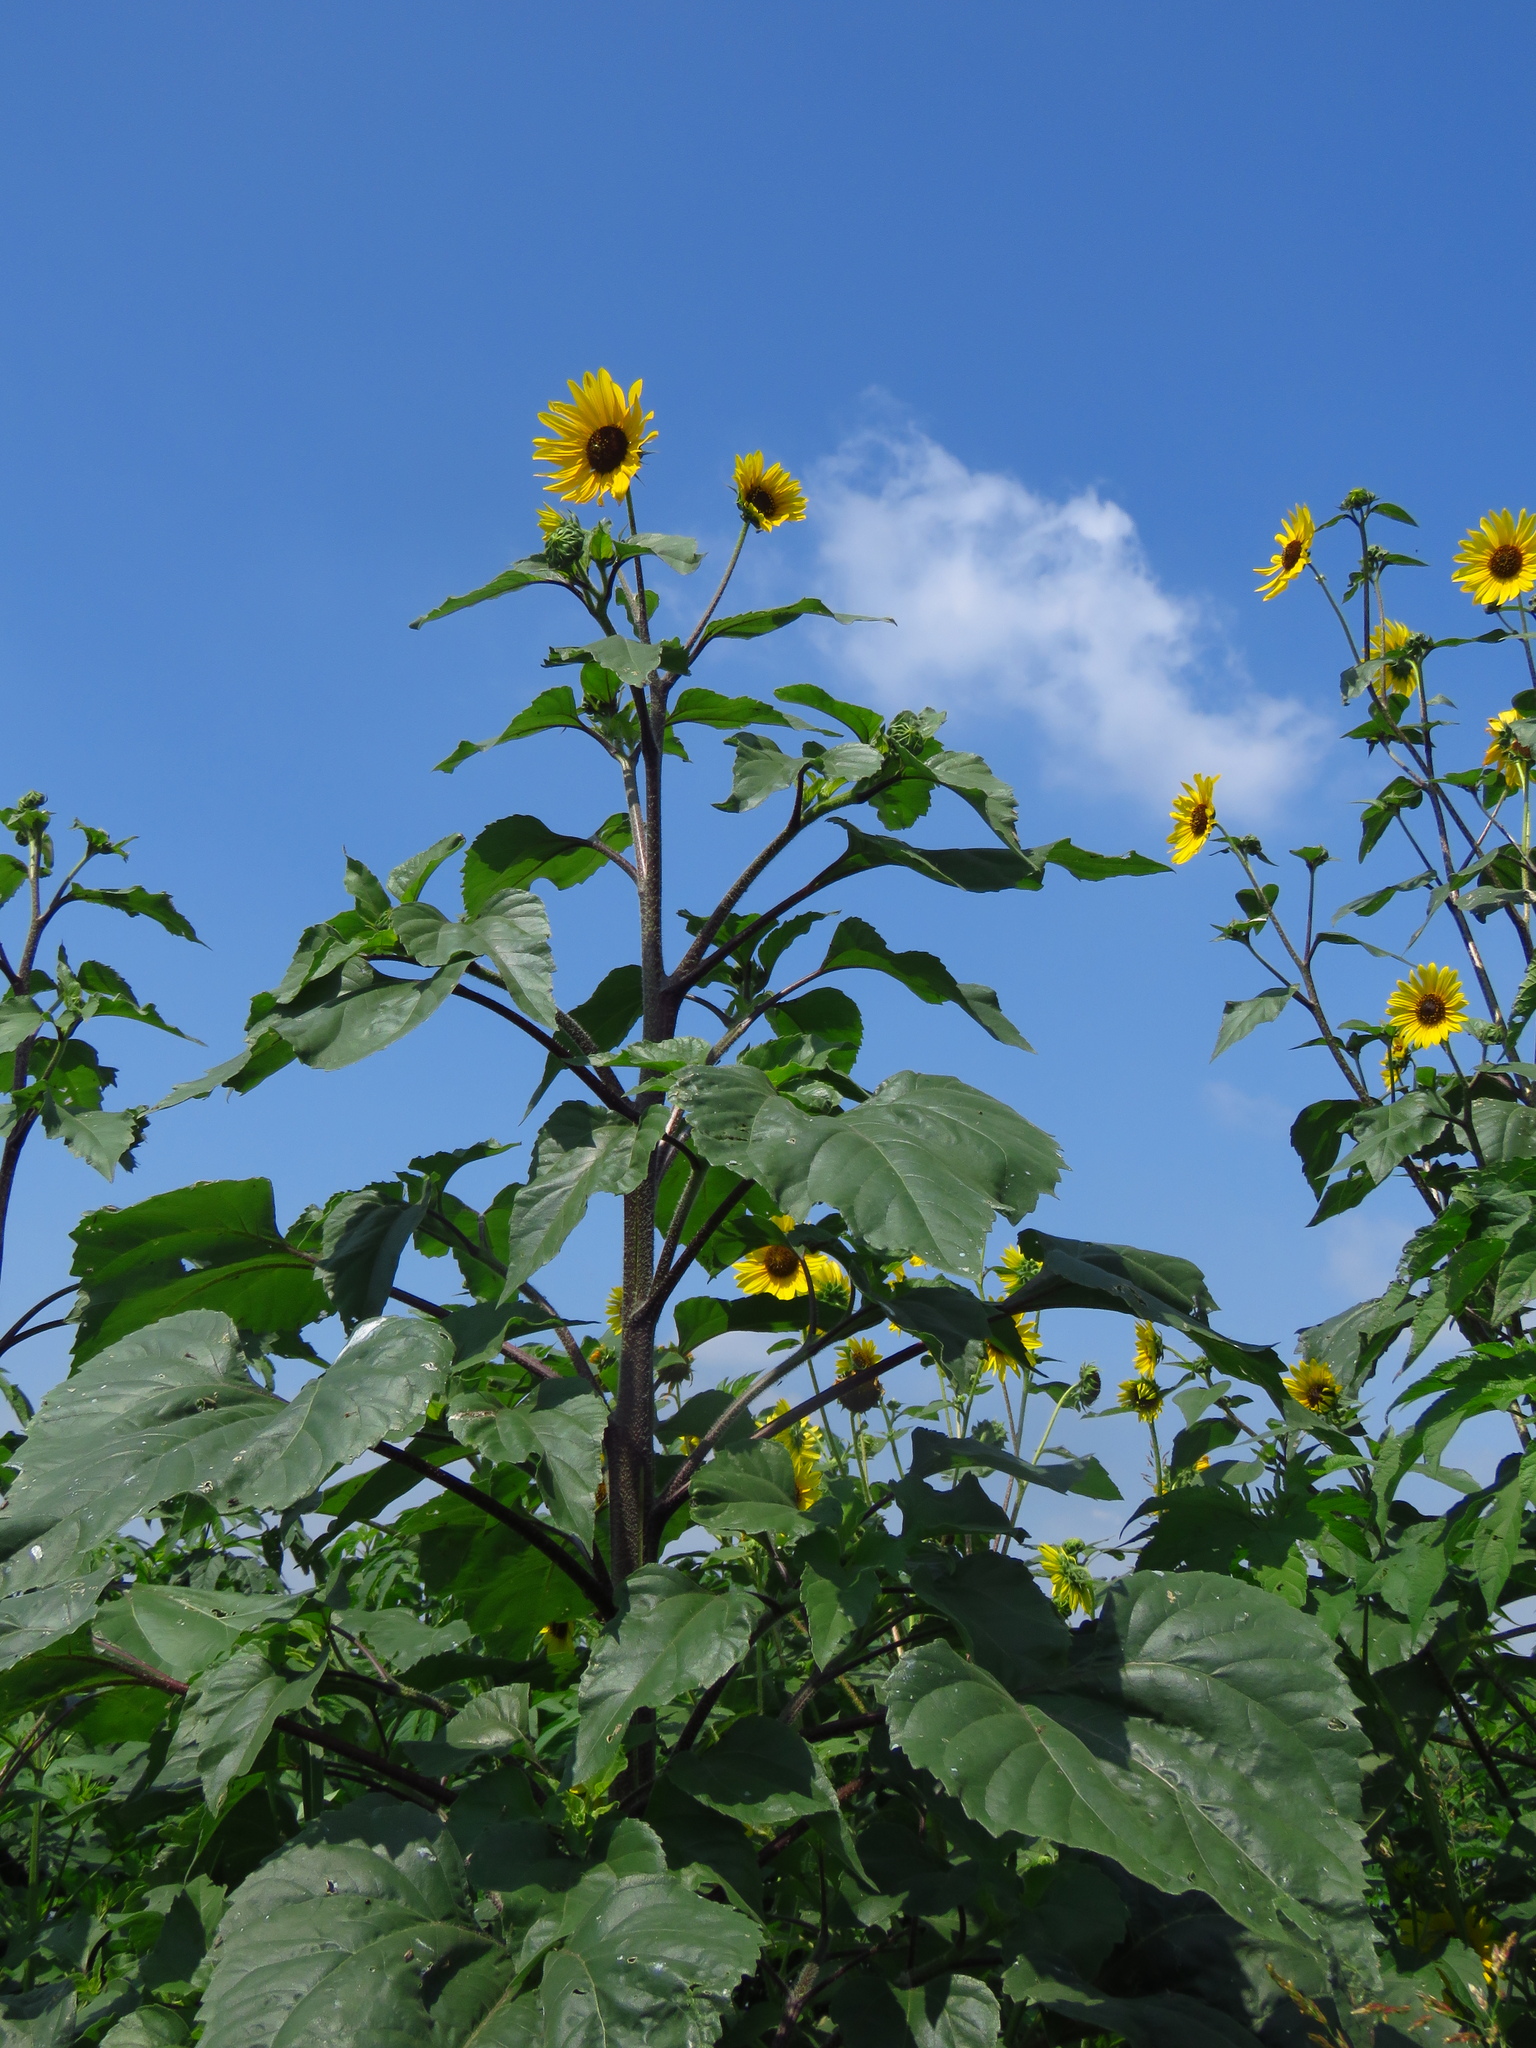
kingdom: Plantae
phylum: Tracheophyta
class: Magnoliopsida
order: Asterales
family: Asteraceae
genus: Helianthus
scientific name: Helianthus annuus
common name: Sunflower
